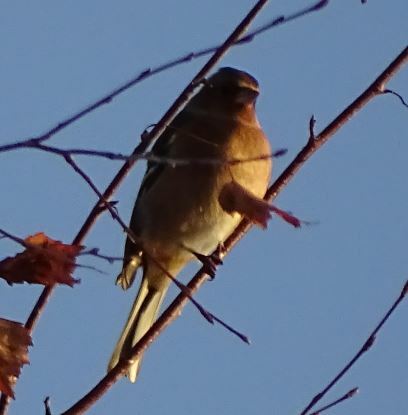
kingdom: Animalia
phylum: Chordata
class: Aves
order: Passeriformes
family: Fringillidae
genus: Fringilla
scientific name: Fringilla coelebs
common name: Common chaffinch
